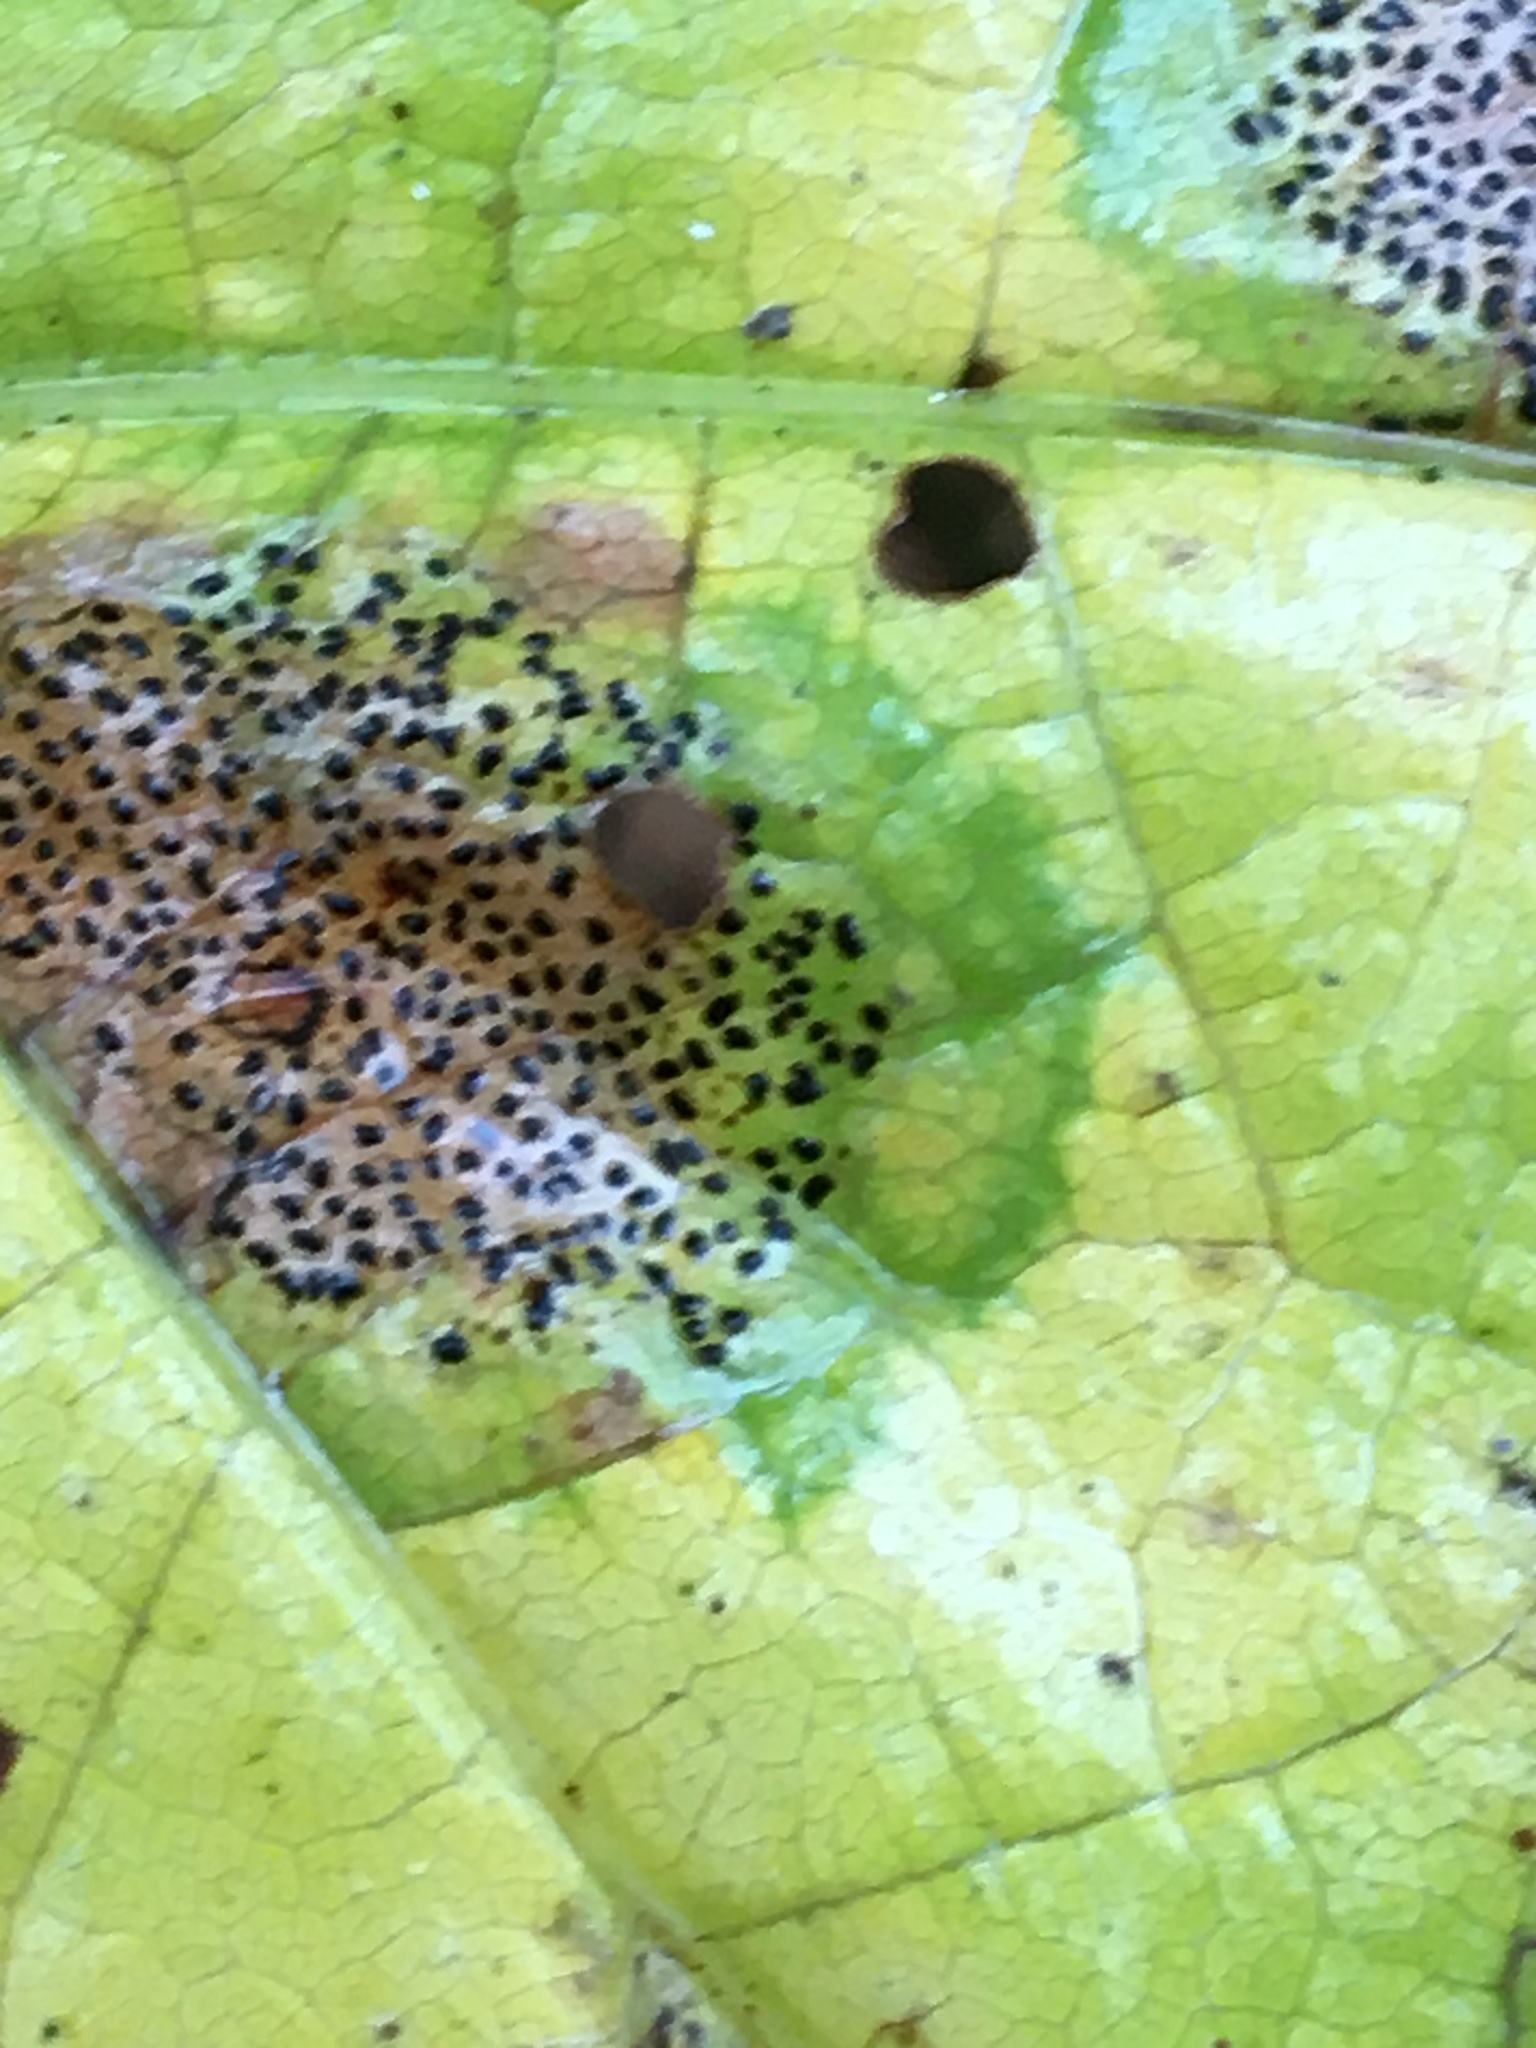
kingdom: Fungi
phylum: Ascomycota
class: Leotiomycetes
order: Rhytismatales
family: Rhytismataceae
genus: Rhytisma
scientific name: Rhytisma punctatum
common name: Speckled tar spot
